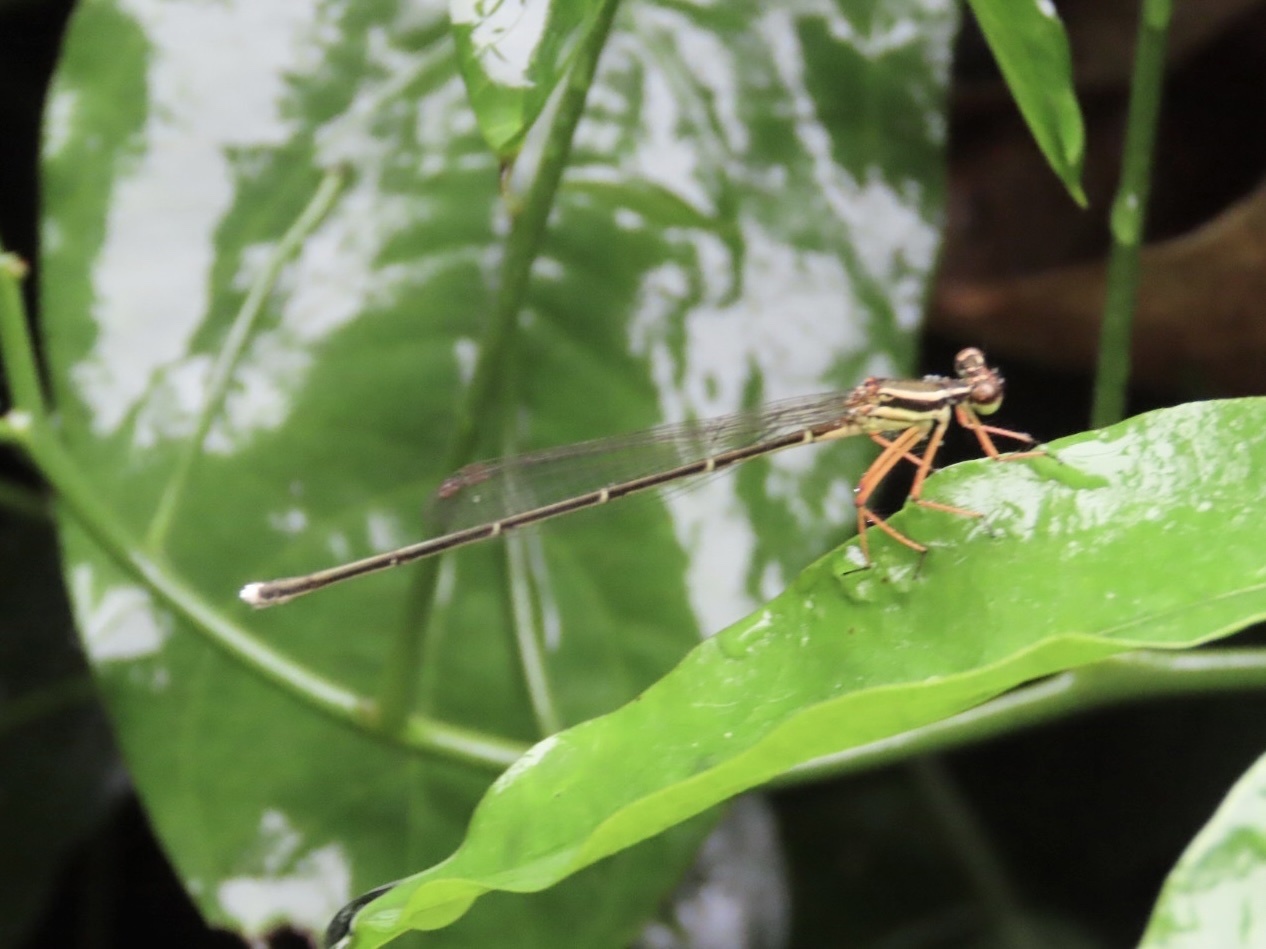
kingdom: Animalia
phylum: Arthropoda
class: Insecta
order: Odonata
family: Platycnemididae
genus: Pseudocopera
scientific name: Pseudocopera ciliata
